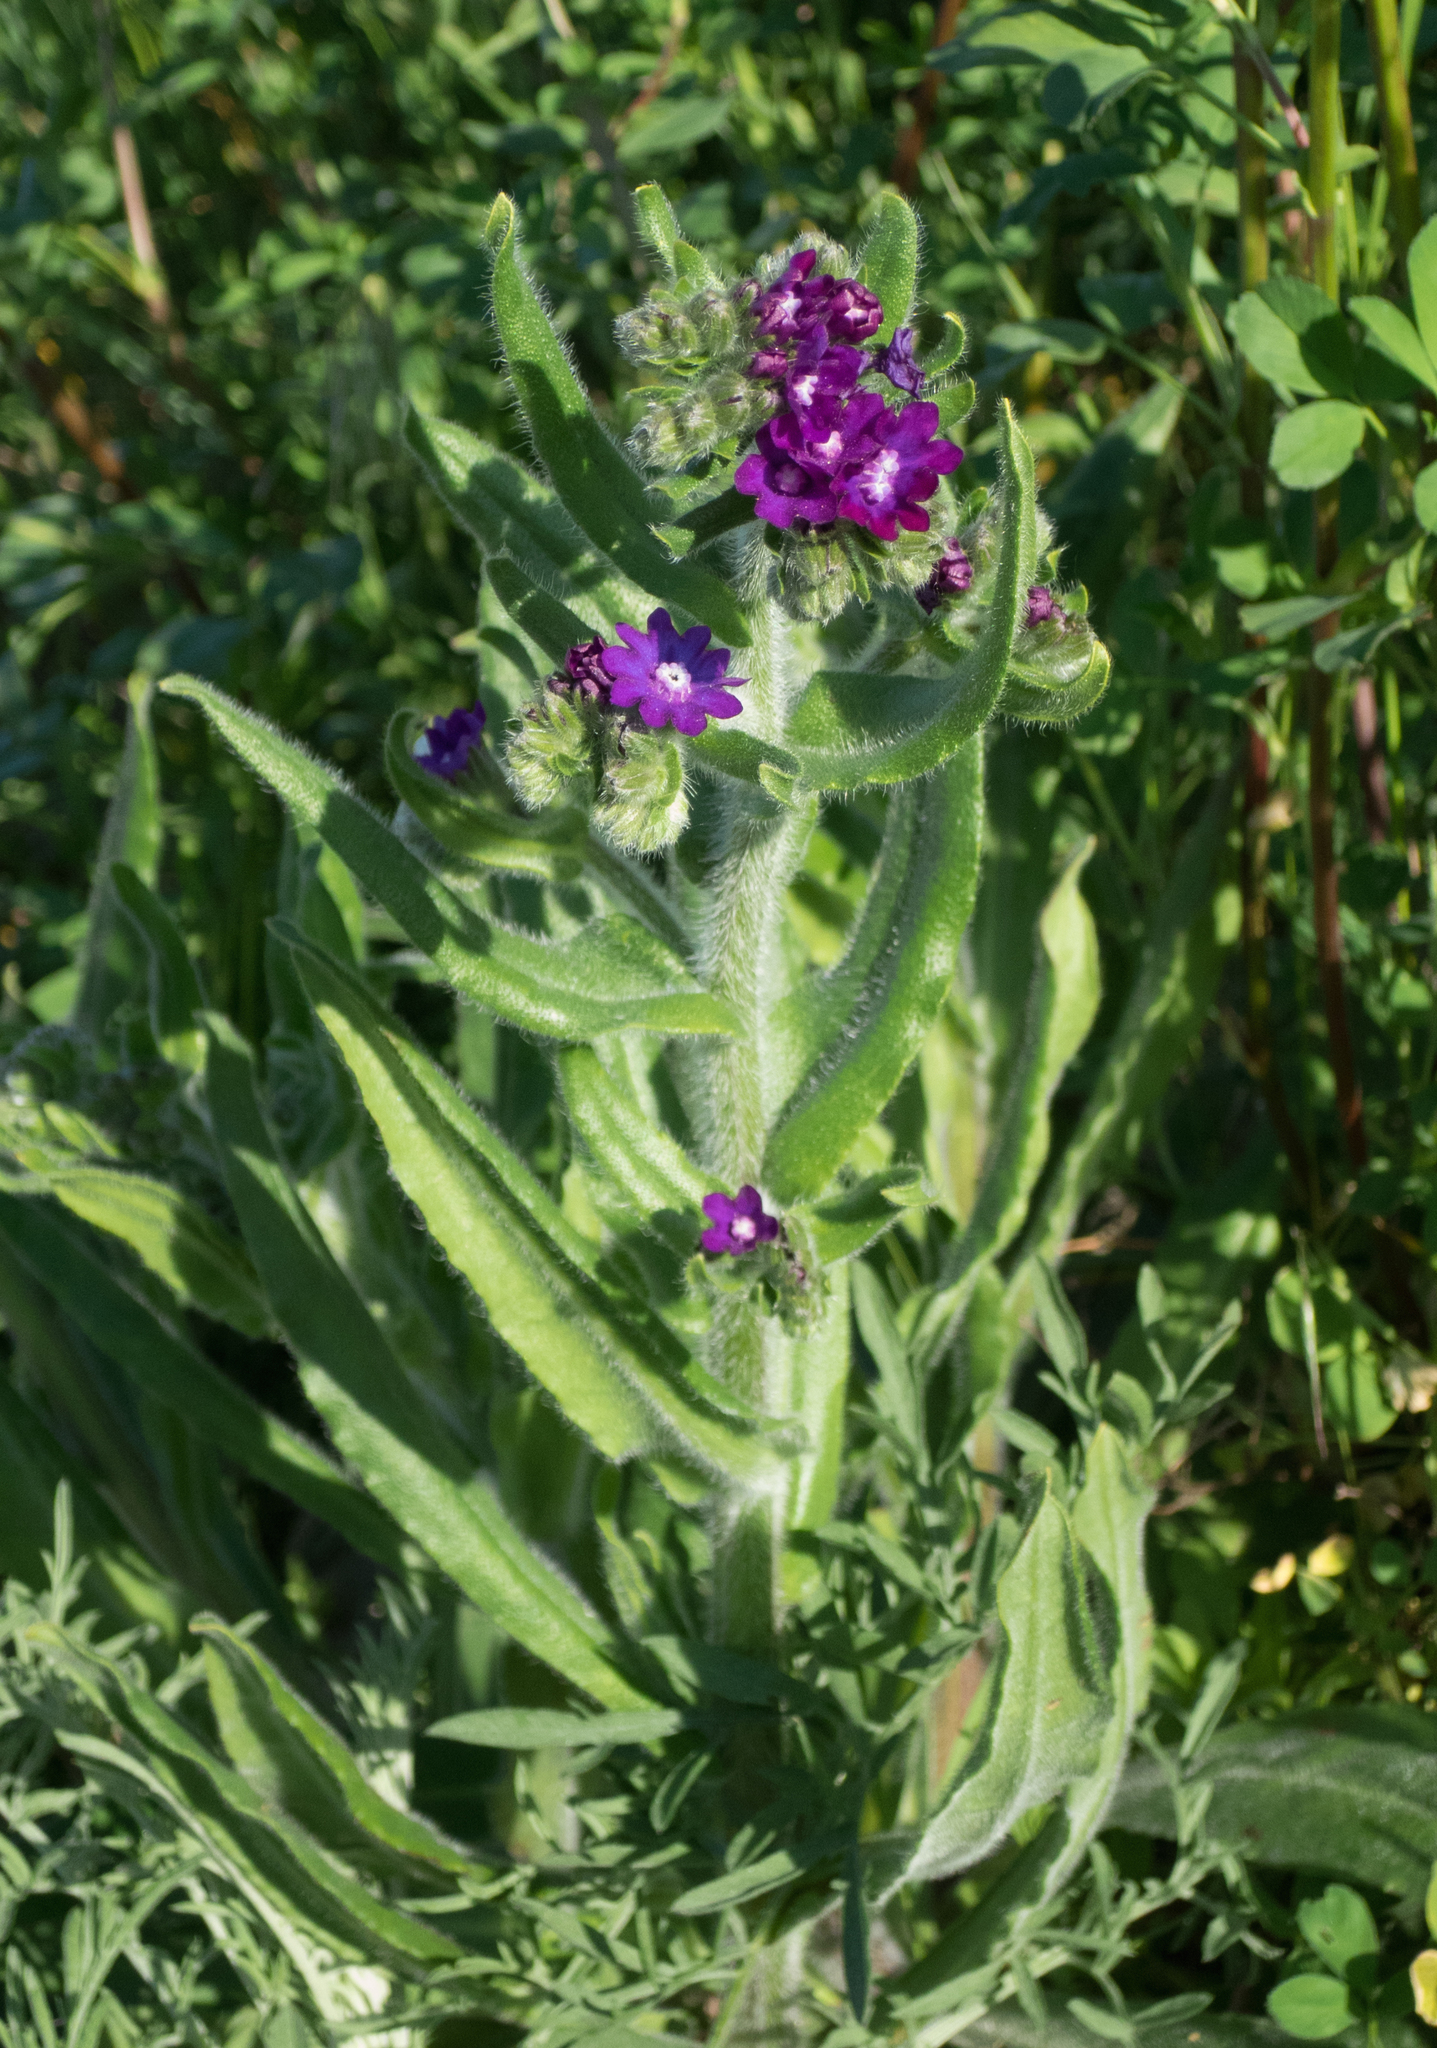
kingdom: Plantae
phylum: Tracheophyta
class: Magnoliopsida
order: Boraginales
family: Boraginaceae
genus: Anchusa
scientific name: Anchusa officinalis
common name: Alkanet
